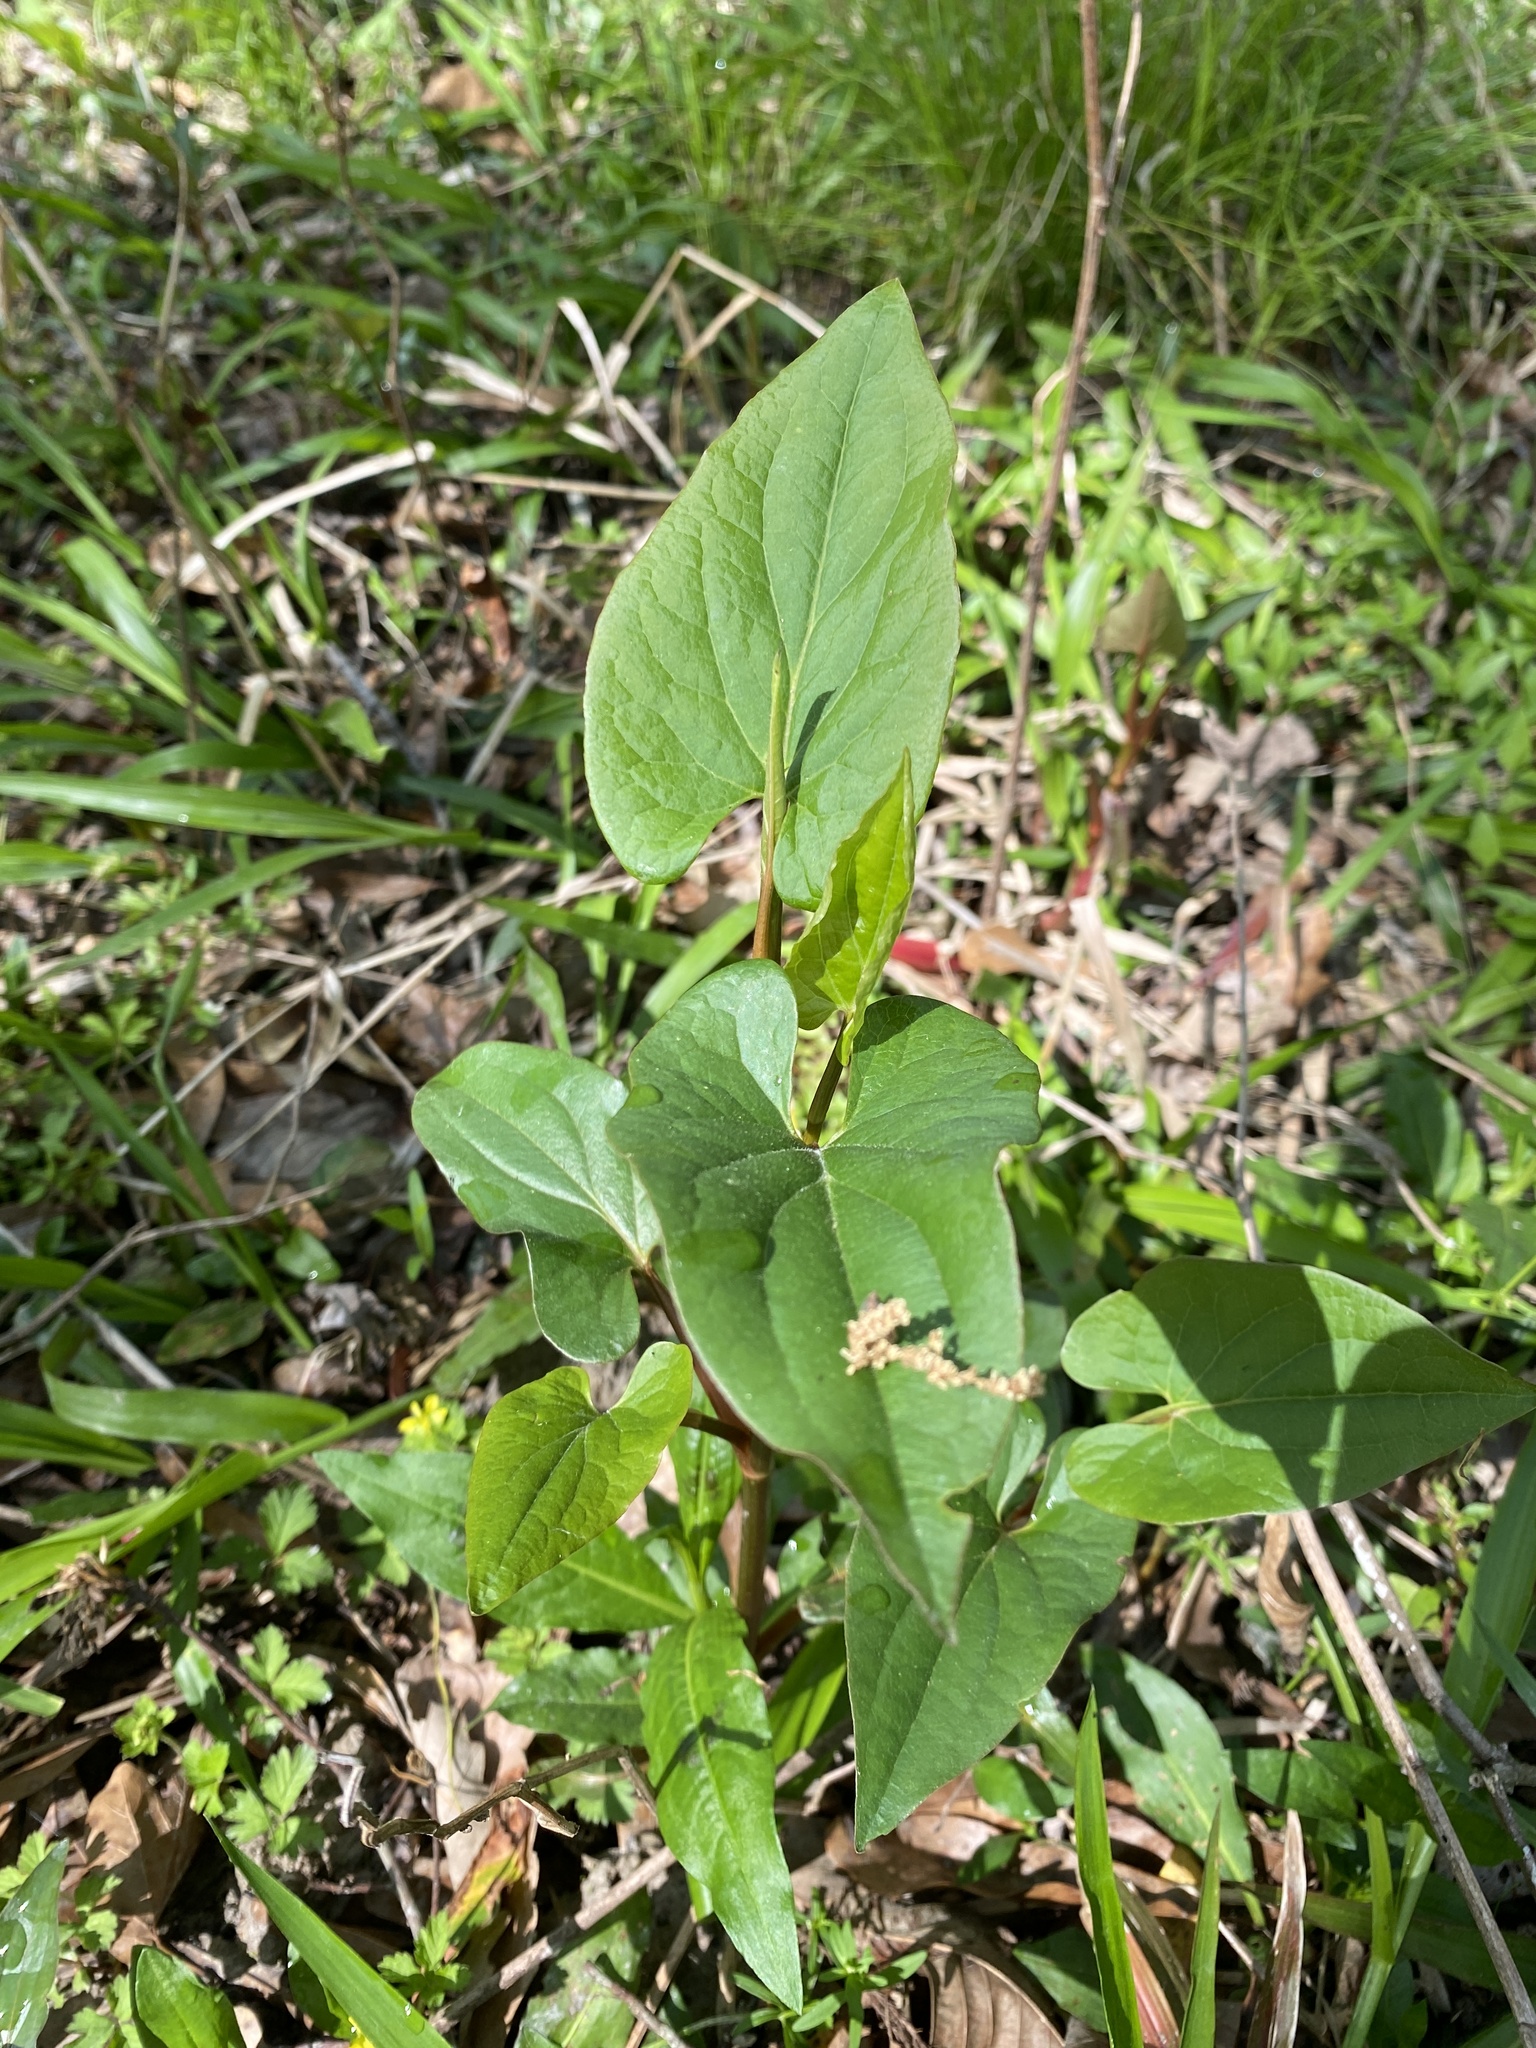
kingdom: Plantae
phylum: Tracheophyta
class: Magnoliopsida
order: Piperales
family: Saururaceae
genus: Saururus
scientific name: Saururus cernuus
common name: Lizard's-tail
